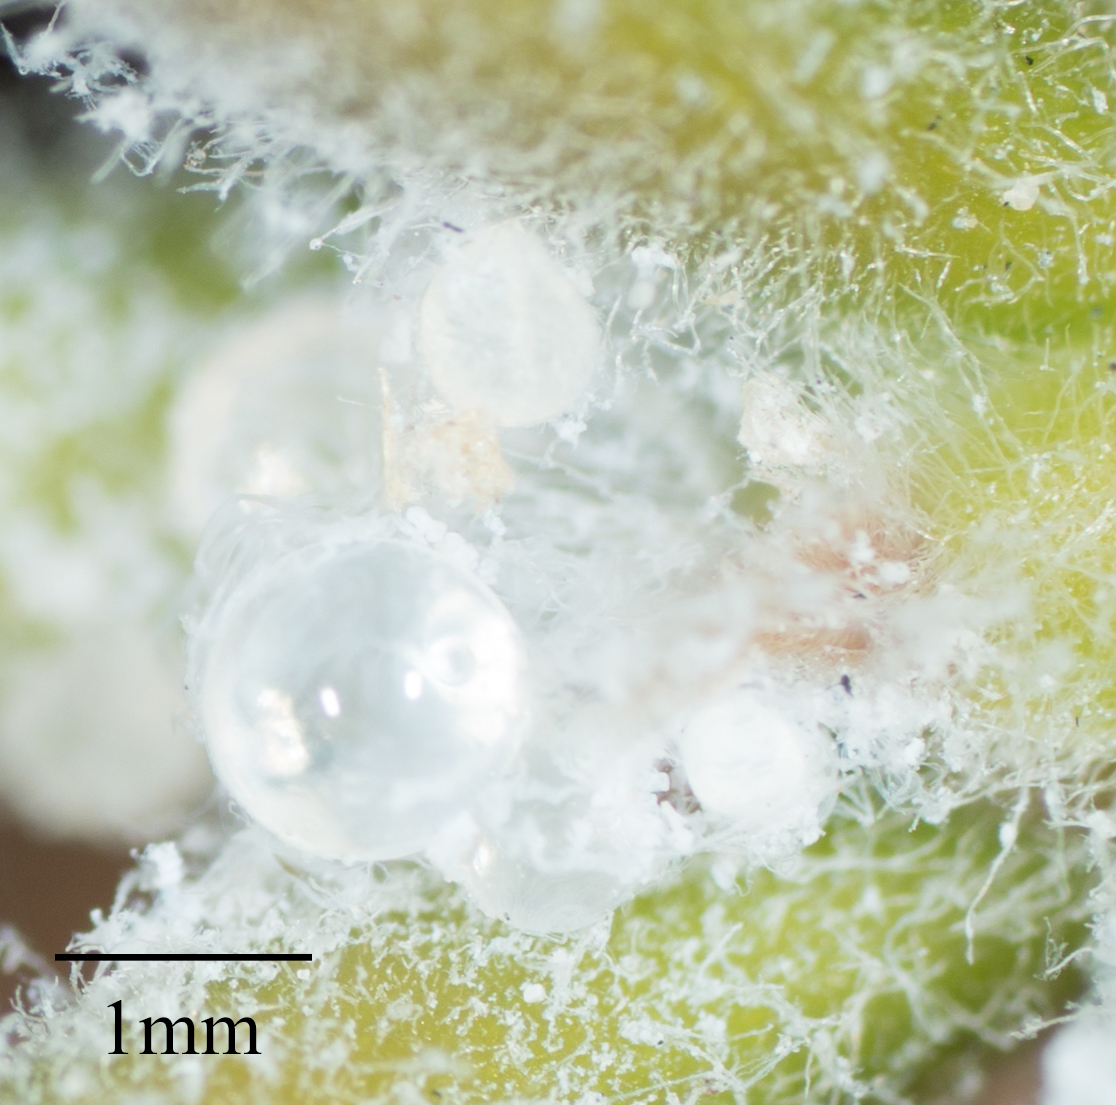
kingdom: Animalia
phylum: Arthropoda
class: Insecta
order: Hemiptera
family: Aphalaridae
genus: Ctenarytaina
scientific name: Ctenarytaina longicauda
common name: Tristania psyllid
